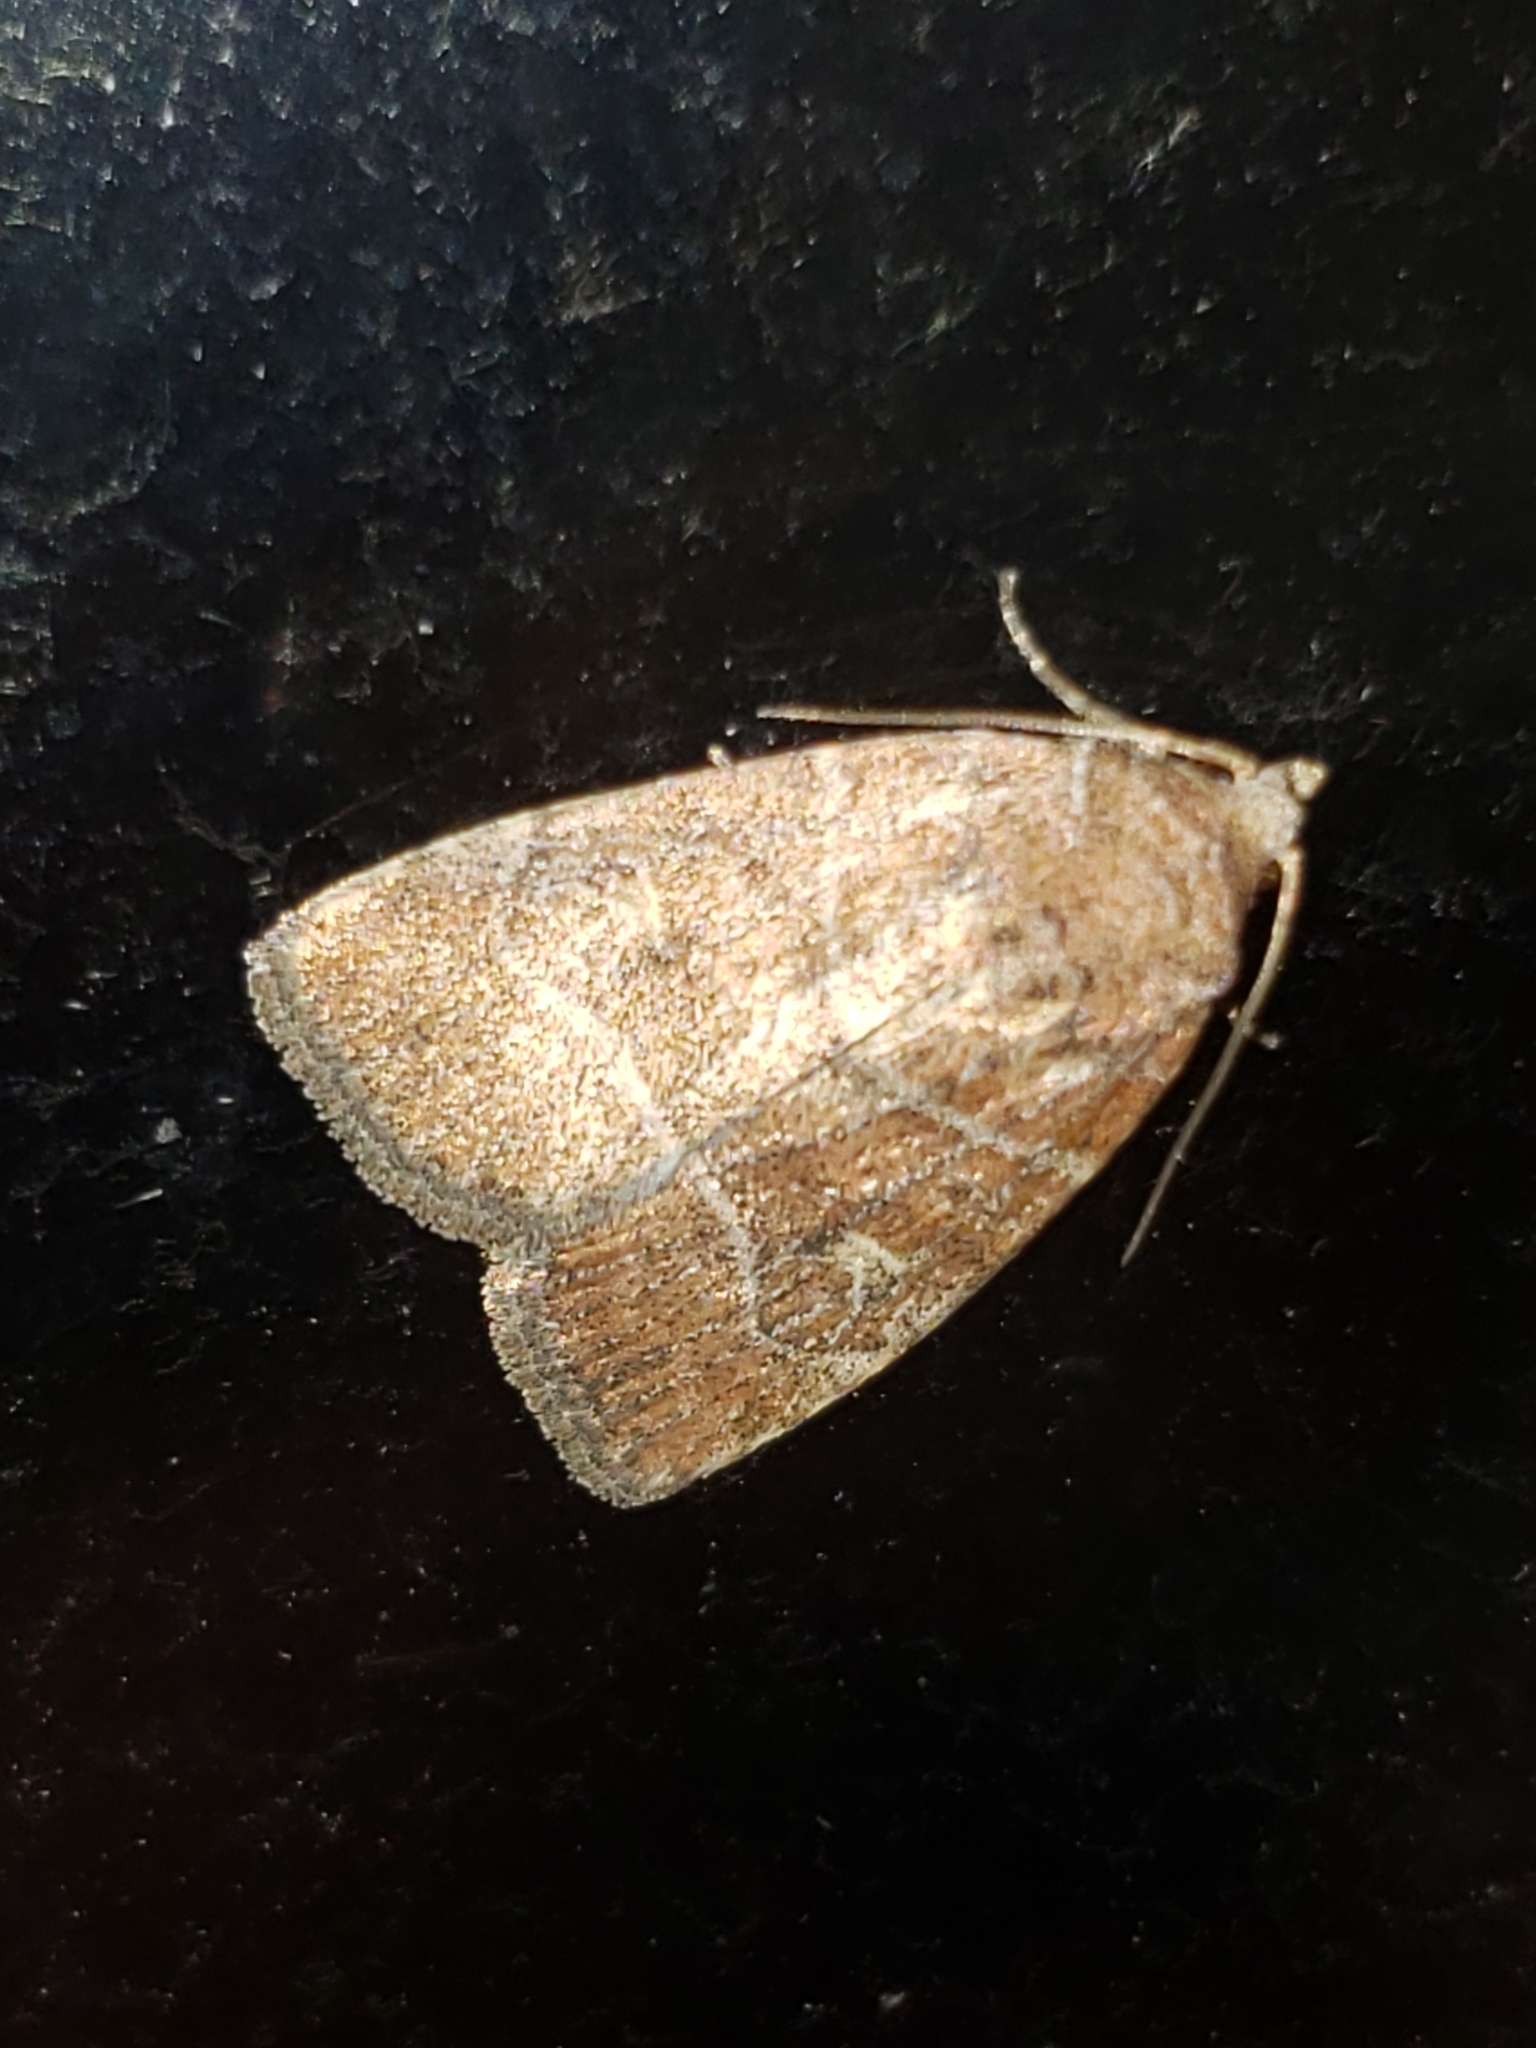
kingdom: Animalia
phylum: Arthropoda
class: Insecta
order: Lepidoptera
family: Noctuidae
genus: Elaphria
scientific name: Elaphria grata
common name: Grateful midget moth
